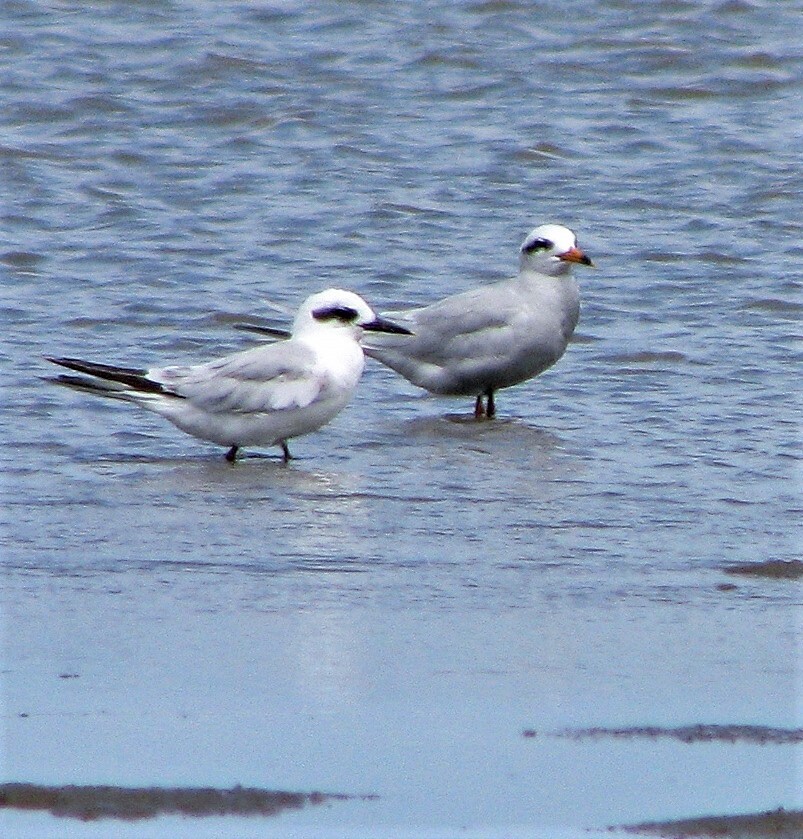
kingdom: Animalia
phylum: Chordata
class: Aves
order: Charadriiformes
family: Laridae
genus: Sterna
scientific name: Sterna trudeaui
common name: Snowy-crowned tern
